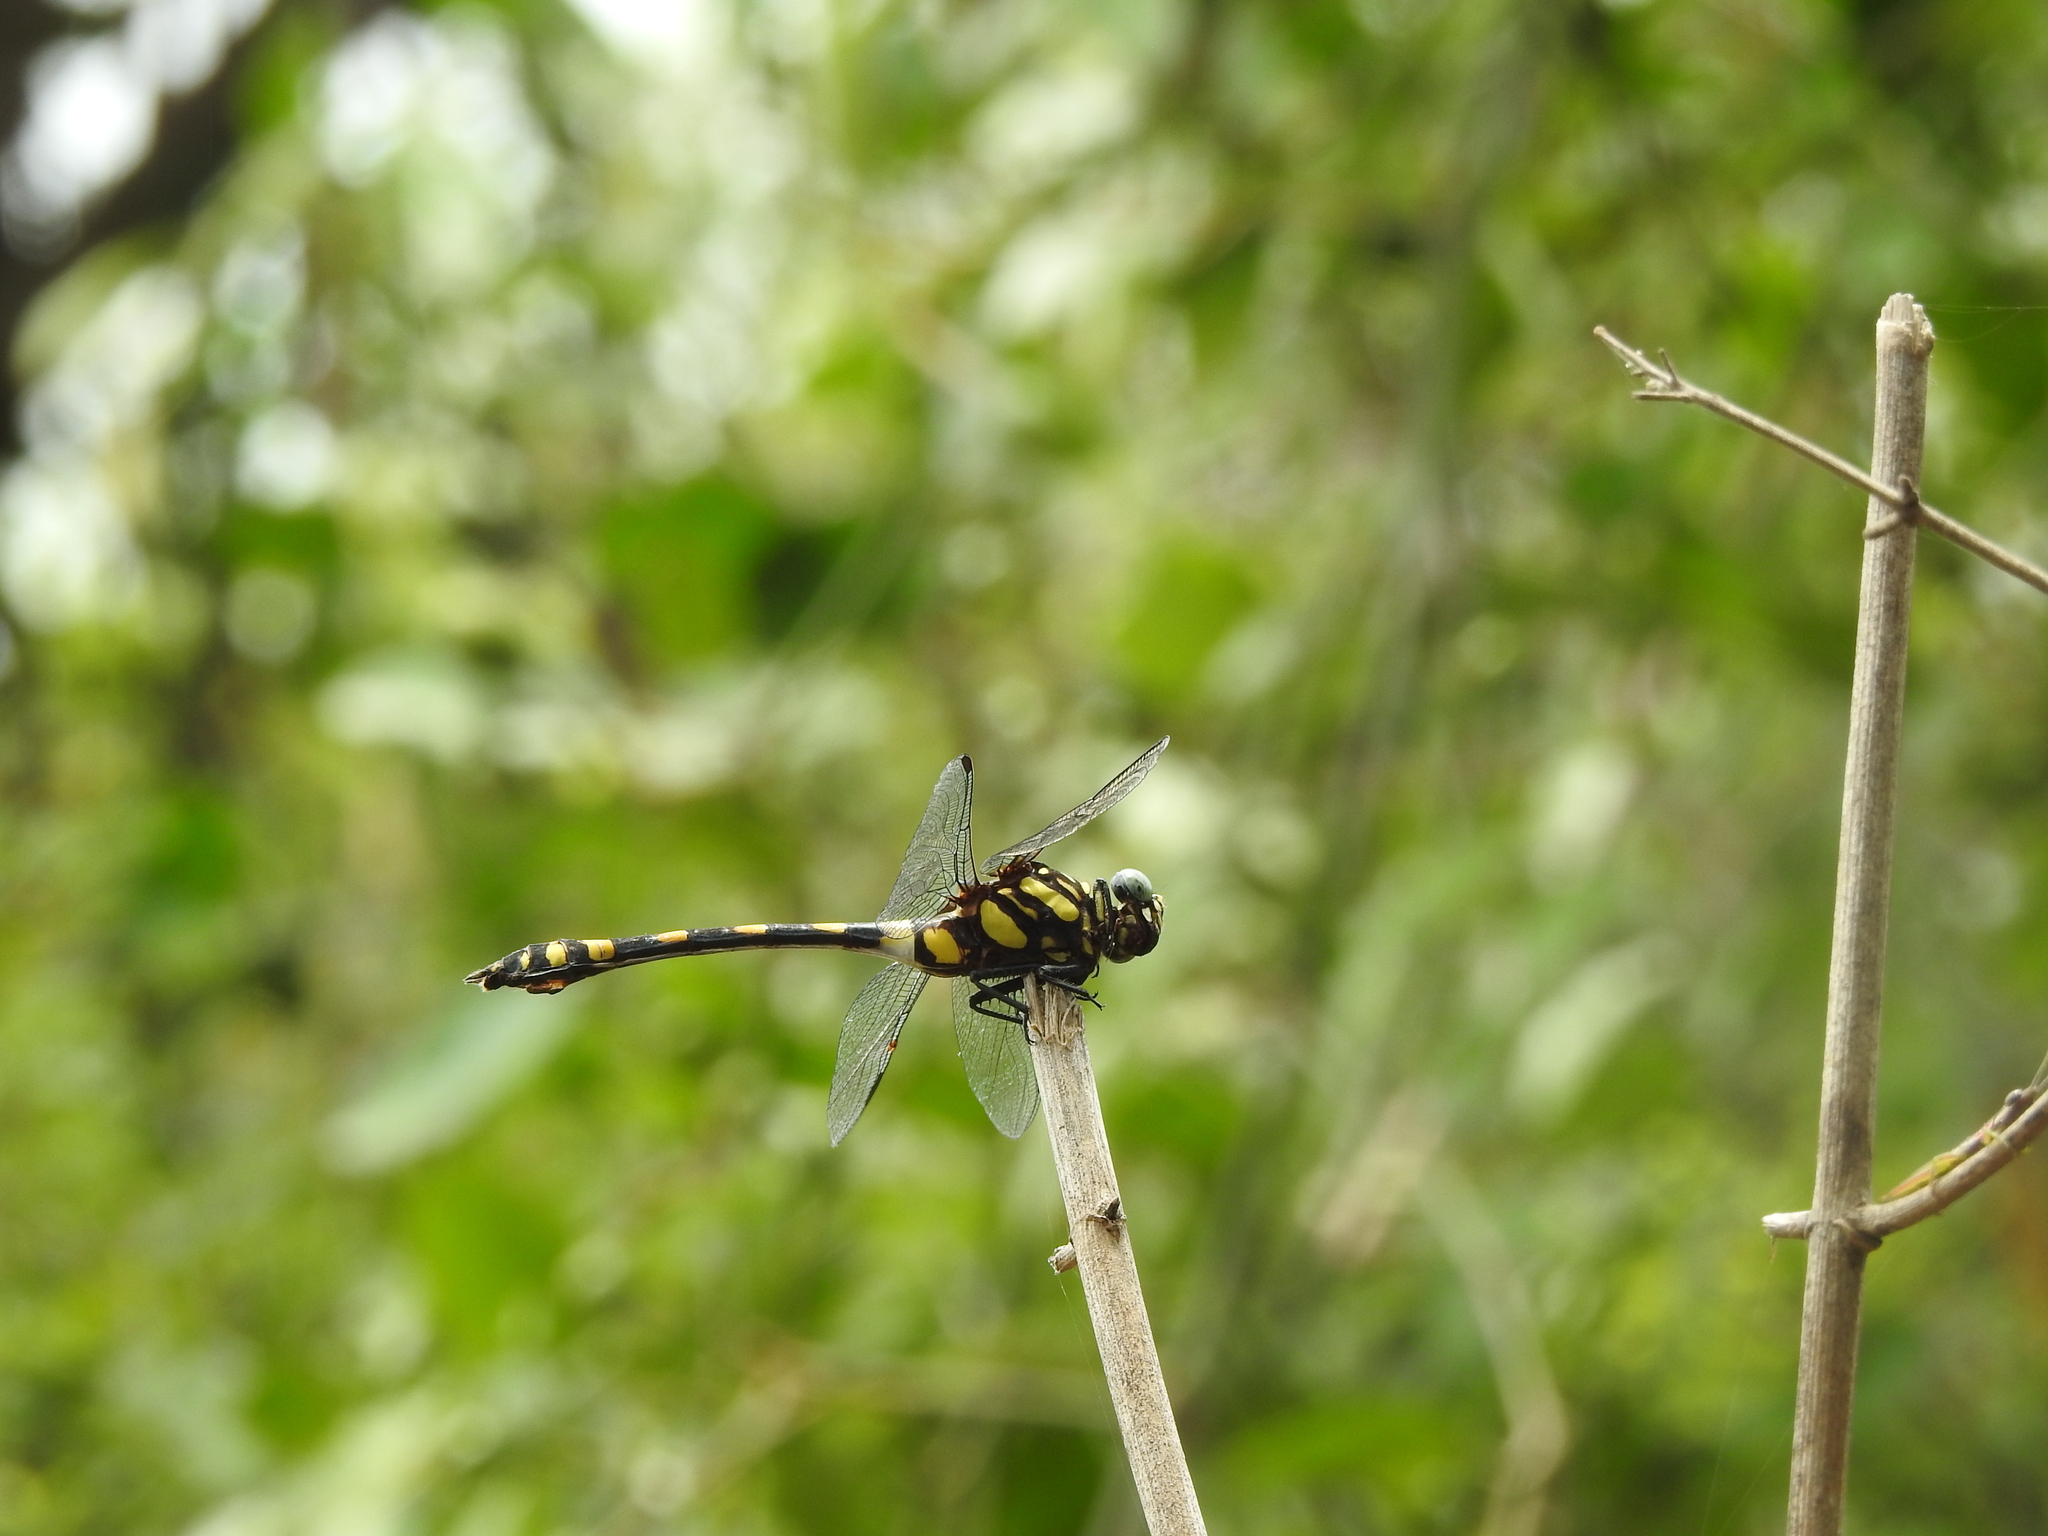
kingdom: Animalia
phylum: Arthropoda
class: Insecta
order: Odonata
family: Gomphidae
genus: Ictinogomphus
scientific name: Ictinogomphus rapax
